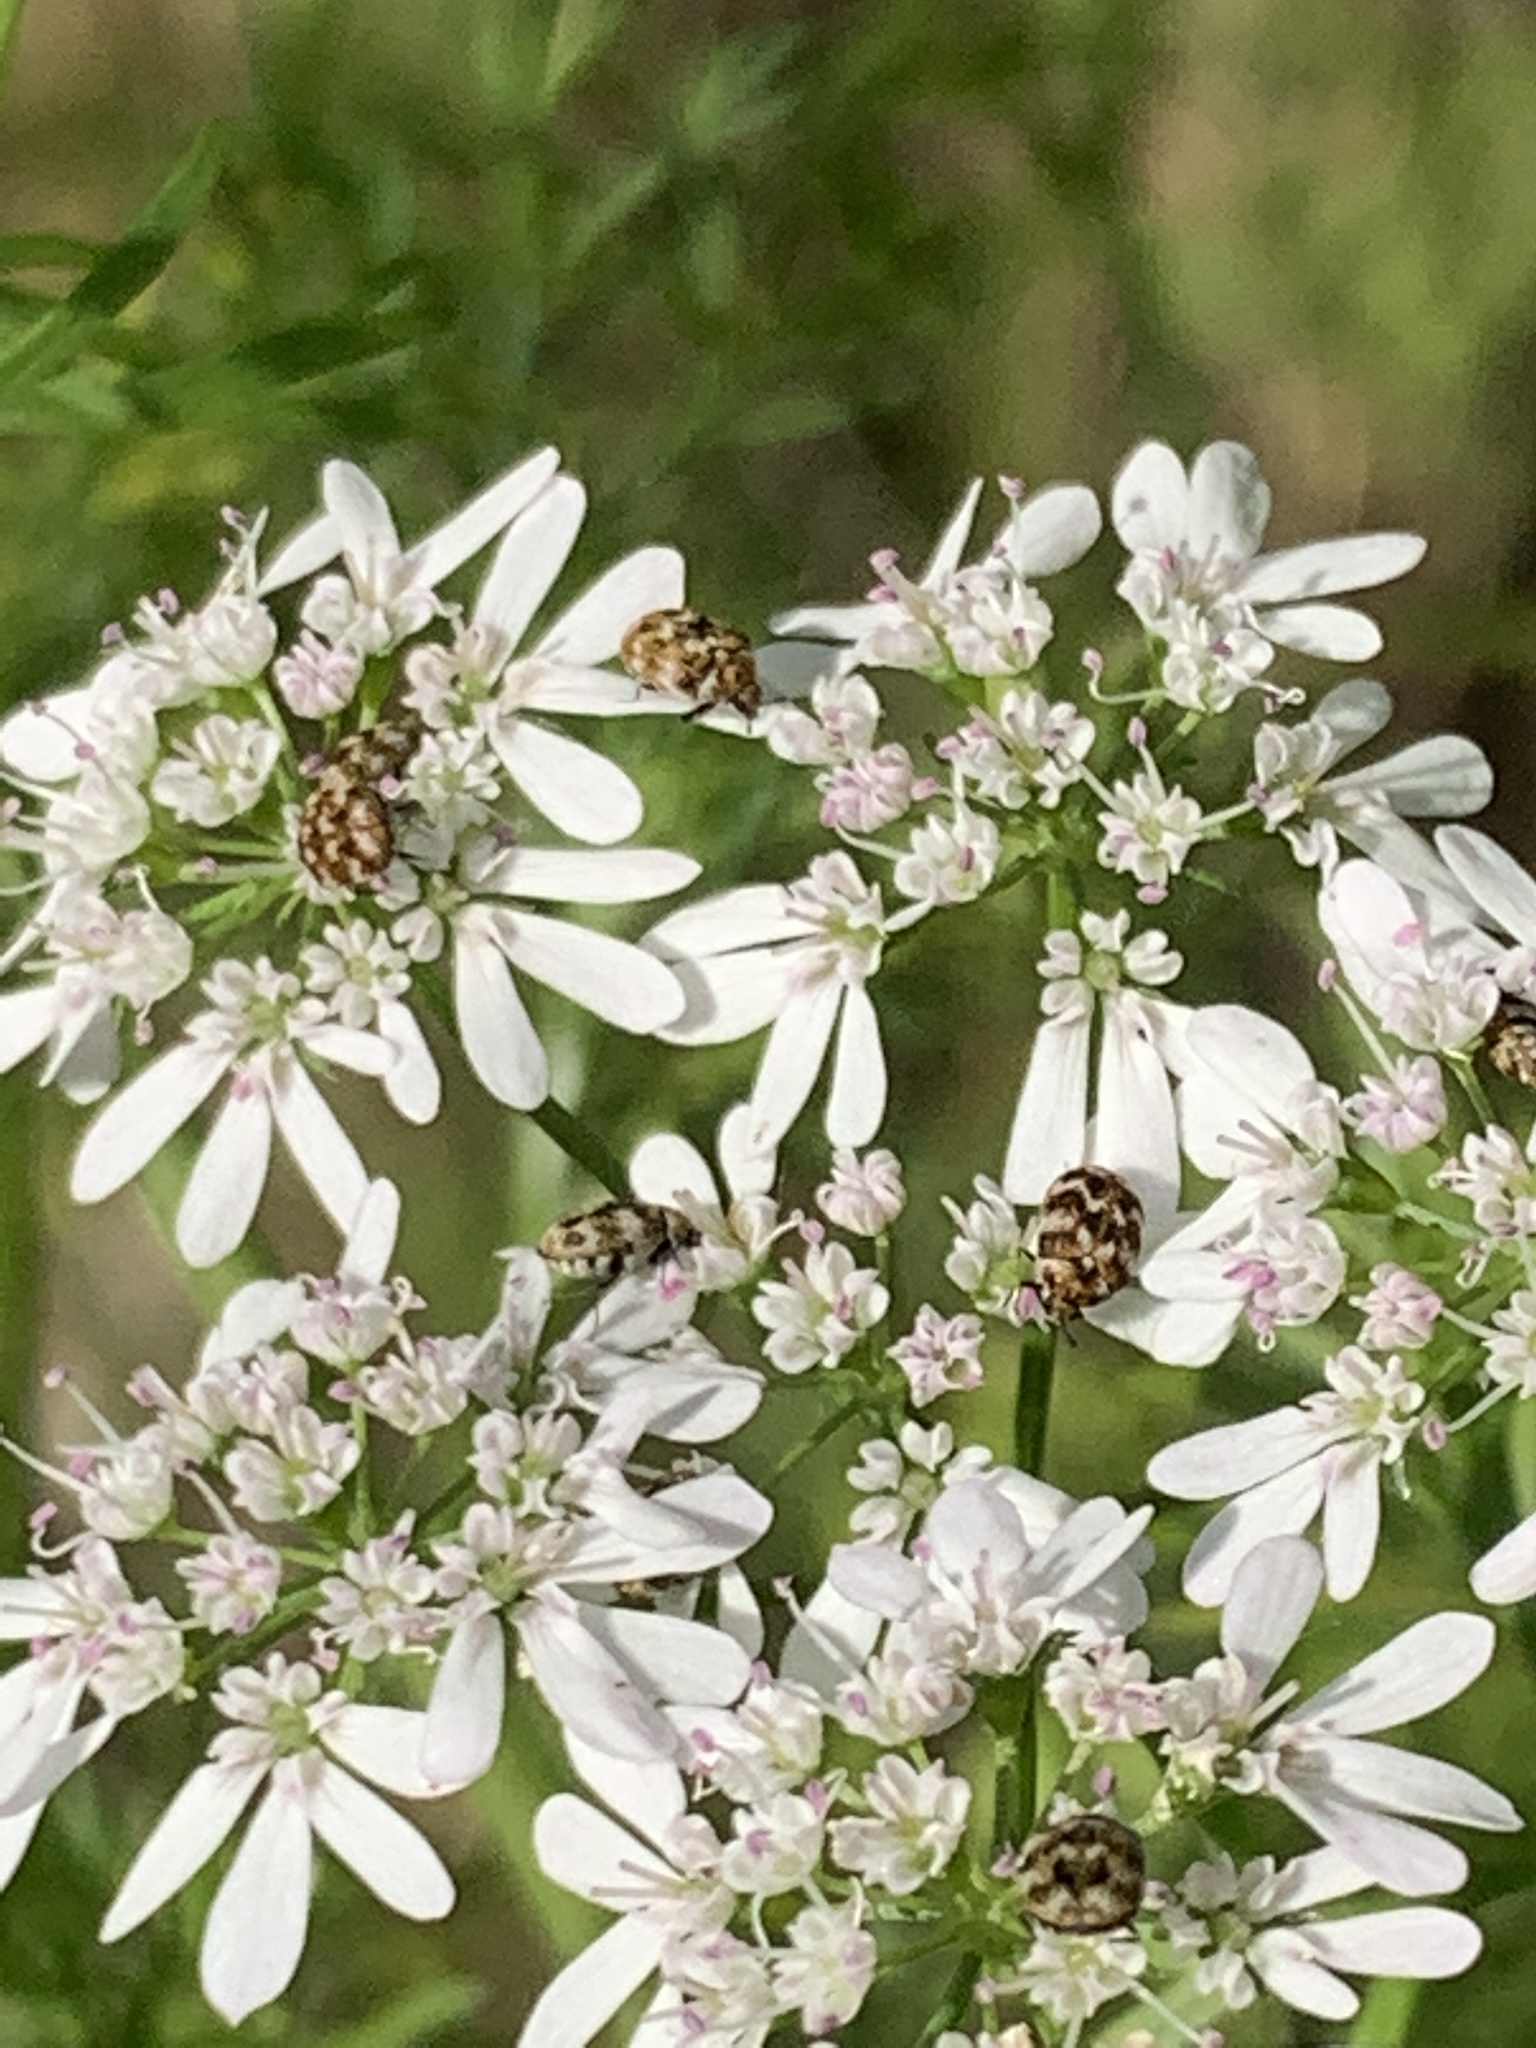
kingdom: Animalia
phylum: Arthropoda
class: Insecta
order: Coleoptera
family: Dermestidae
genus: Anthrenus
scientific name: Anthrenus verbasci
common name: Varied carpet beetle
